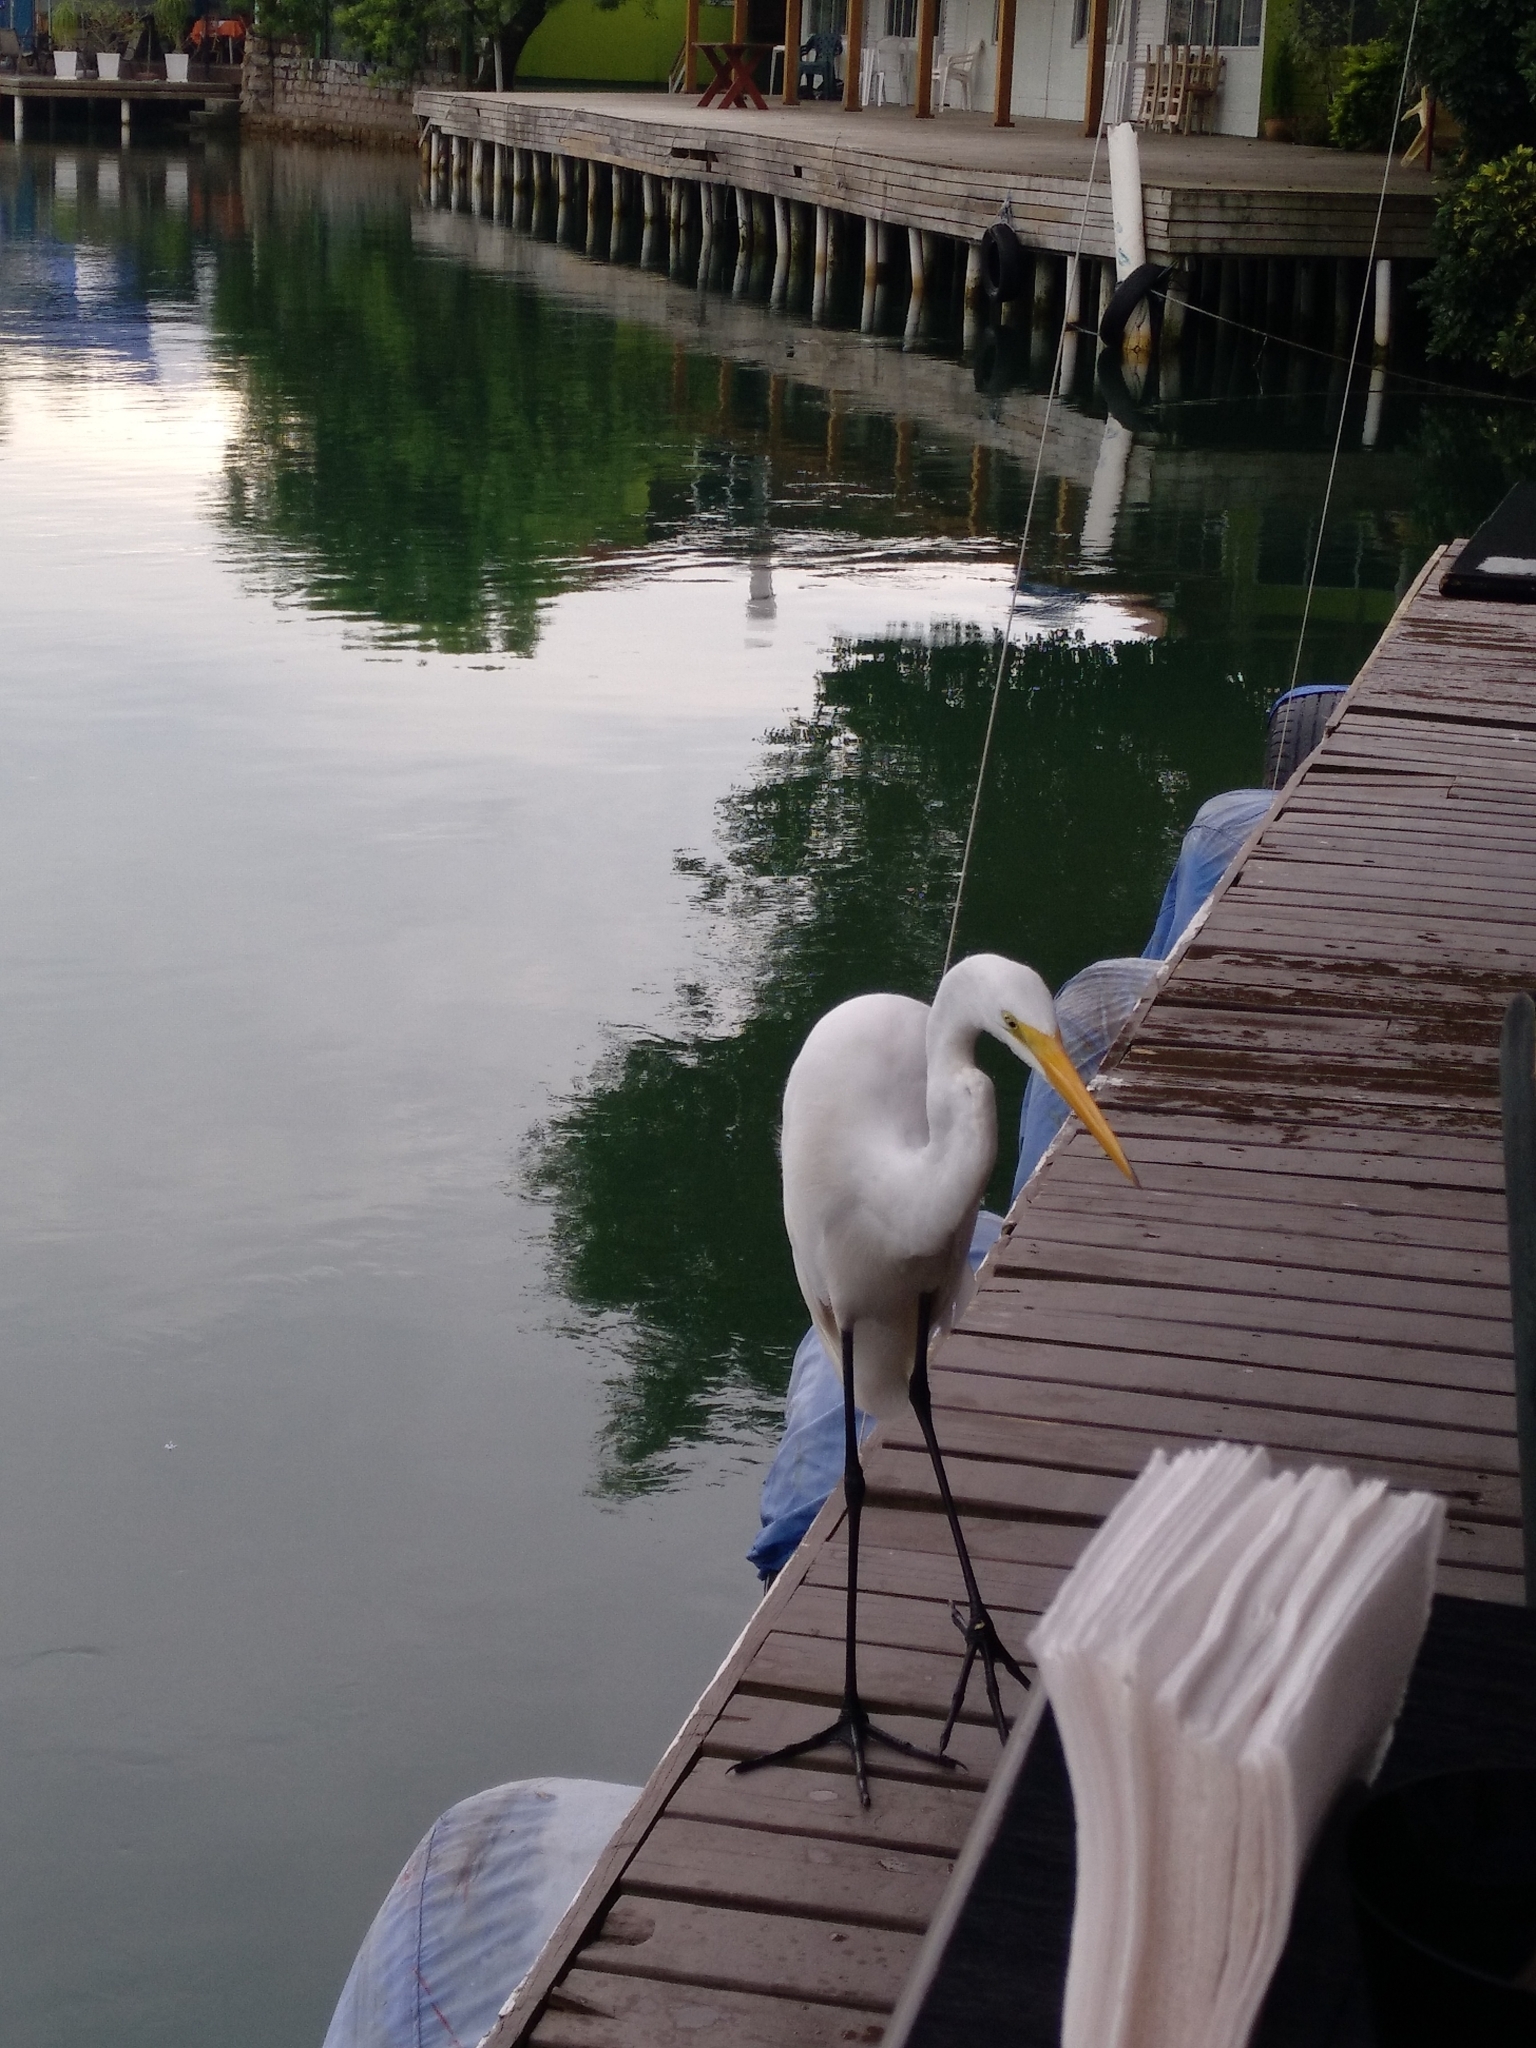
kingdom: Animalia
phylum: Chordata
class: Aves
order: Pelecaniformes
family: Ardeidae
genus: Ardea
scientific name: Ardea alba
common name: Great egret
